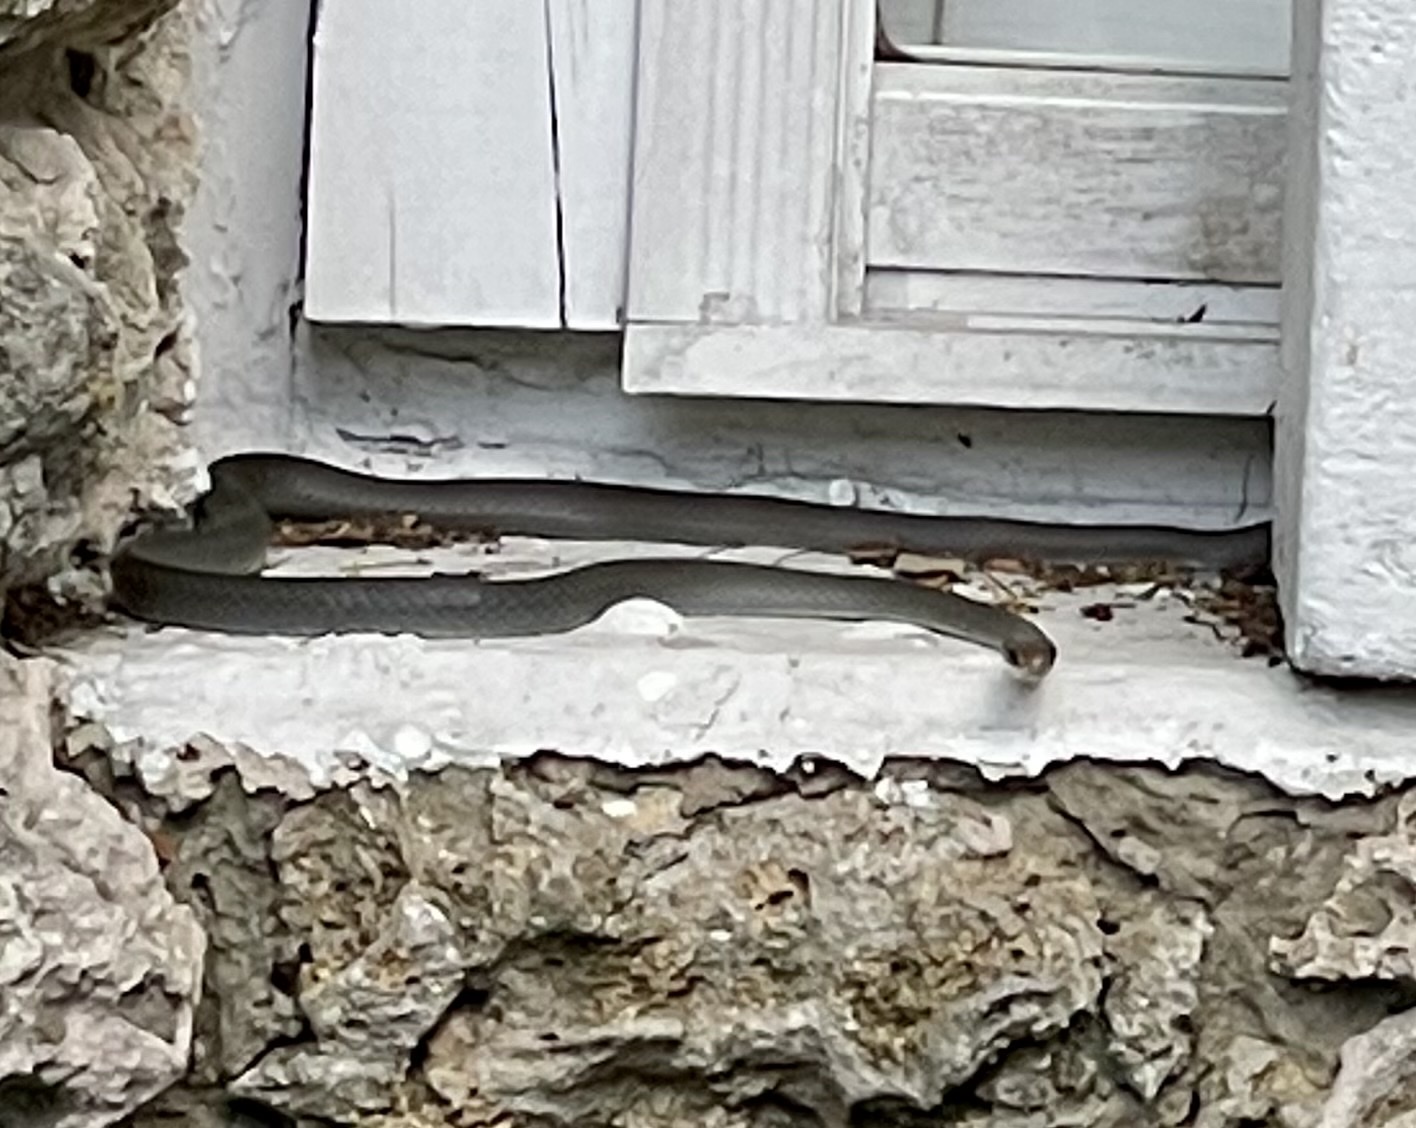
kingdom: Animalia
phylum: Chordata
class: Squamata
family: Colubridae
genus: Coluber
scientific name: Coluber constrictor
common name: Eastern racer
